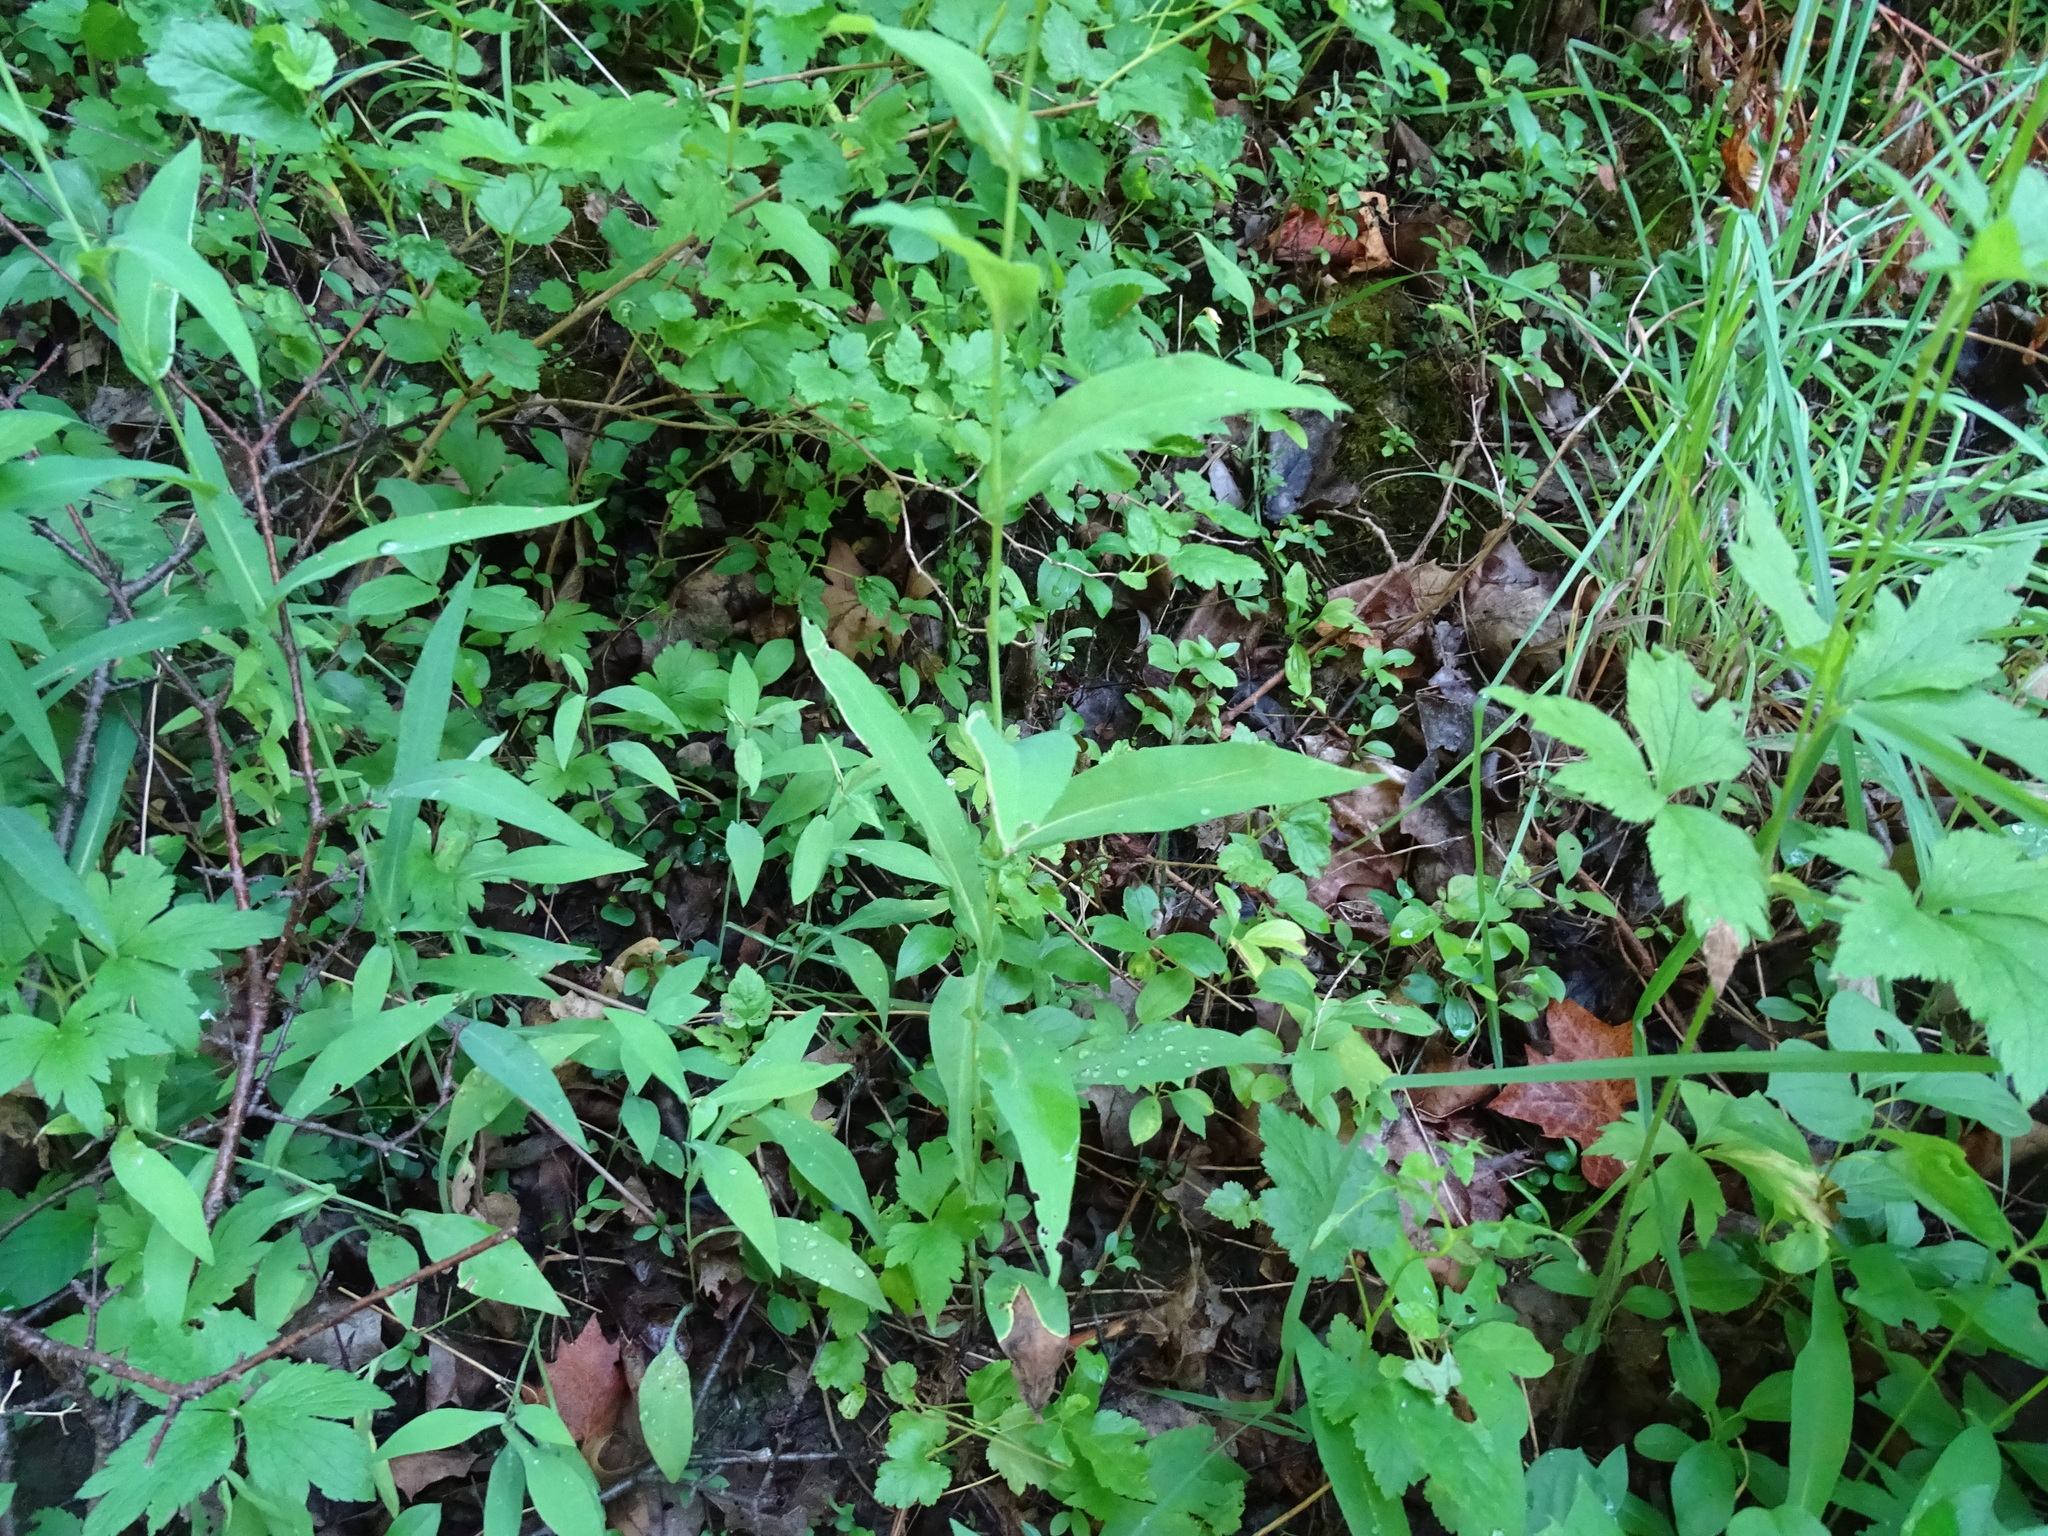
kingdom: Plantae
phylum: Tracheophyta
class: Magnoliopsida
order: Asterales
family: Asteraceae
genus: Symphyotrichum
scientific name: Symphyotrichum laeve
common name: Glaucous aster
